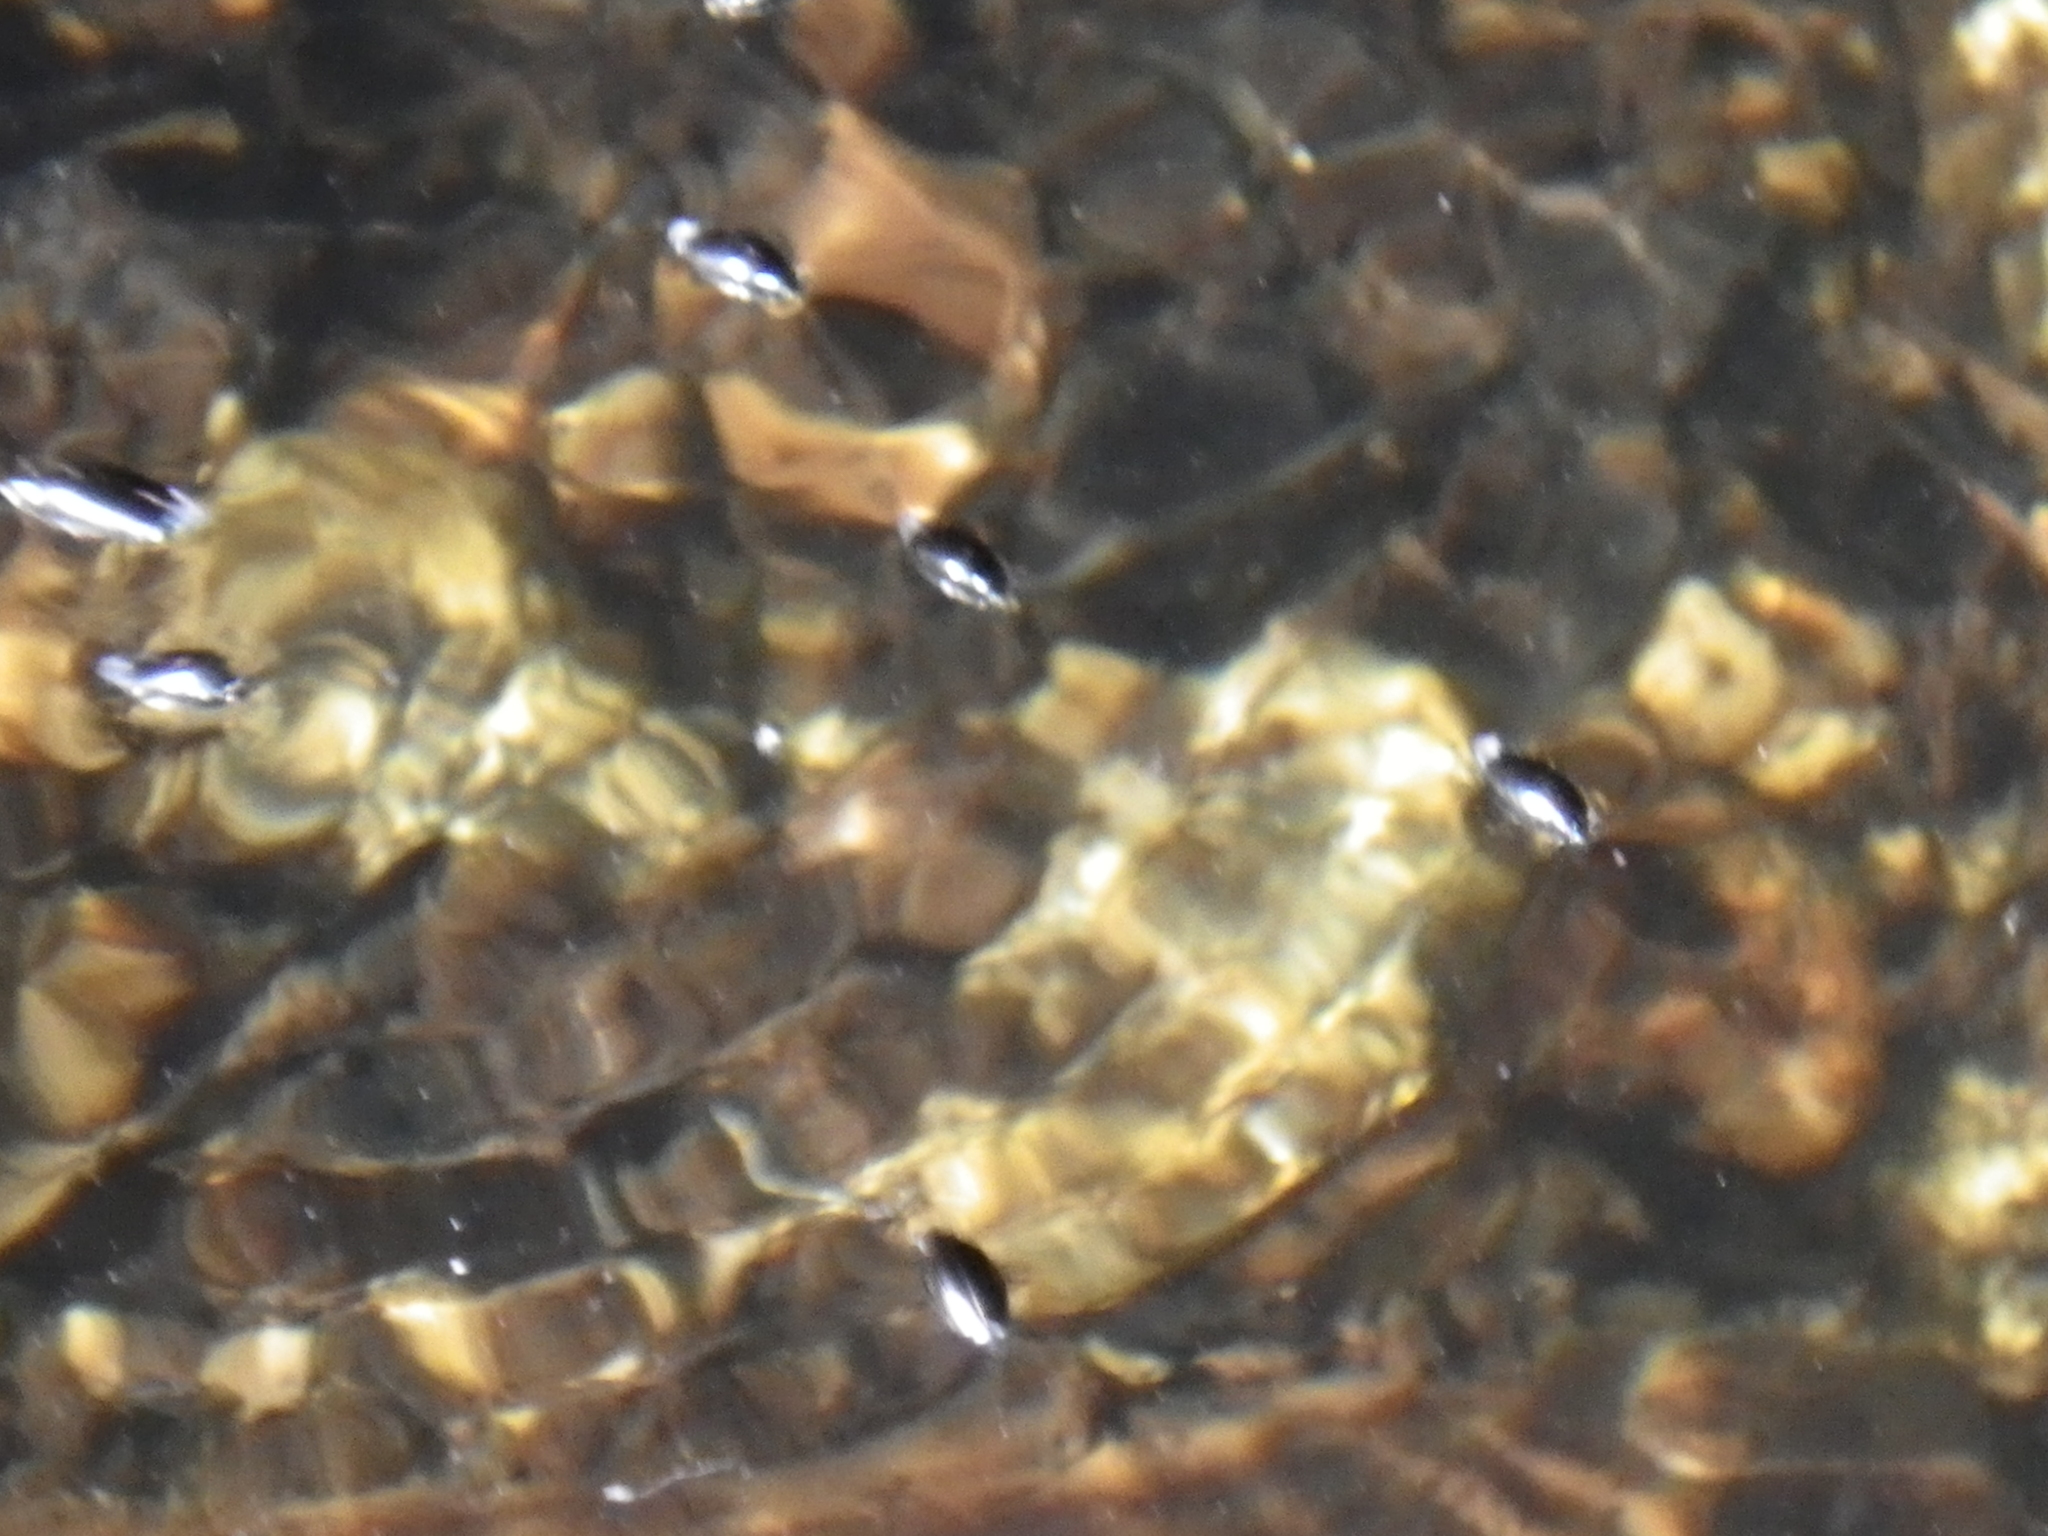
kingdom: Animalia
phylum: Arthropoda
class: Insecta
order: Coleoptera
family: Gyrinidae
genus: Gyrinus
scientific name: Gyrinus
